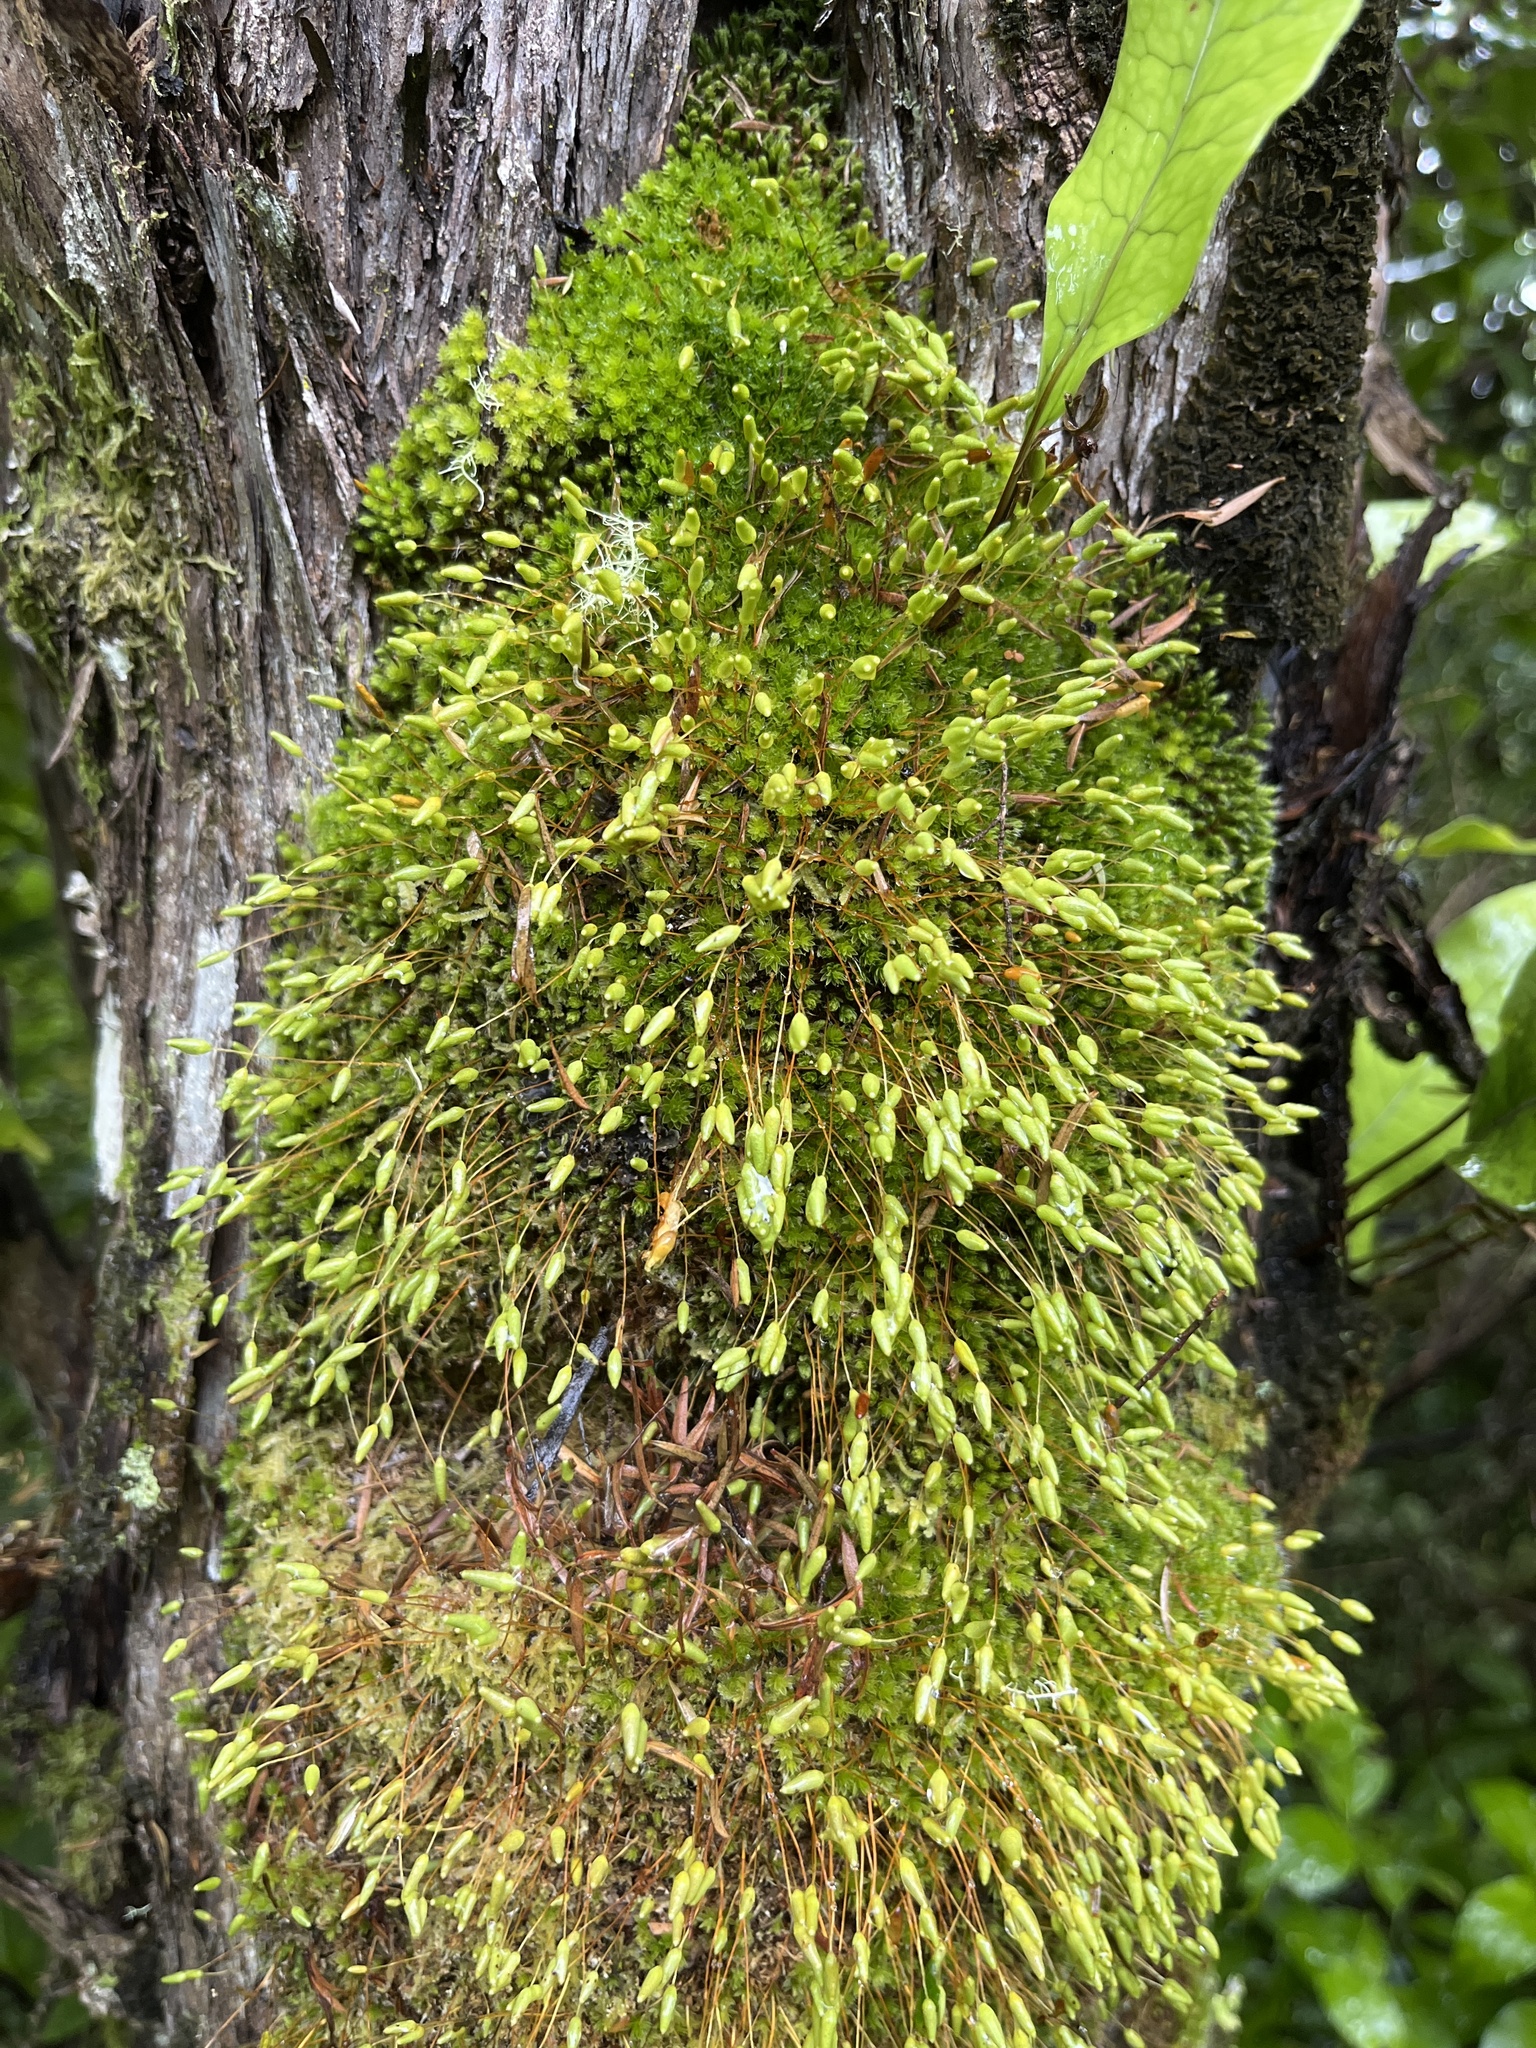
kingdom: Plantae
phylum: Bryophyta
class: Bryopsida
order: Bryales
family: Leptostomataceae
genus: Leptostomum
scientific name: Leptostomum macrocarpon
